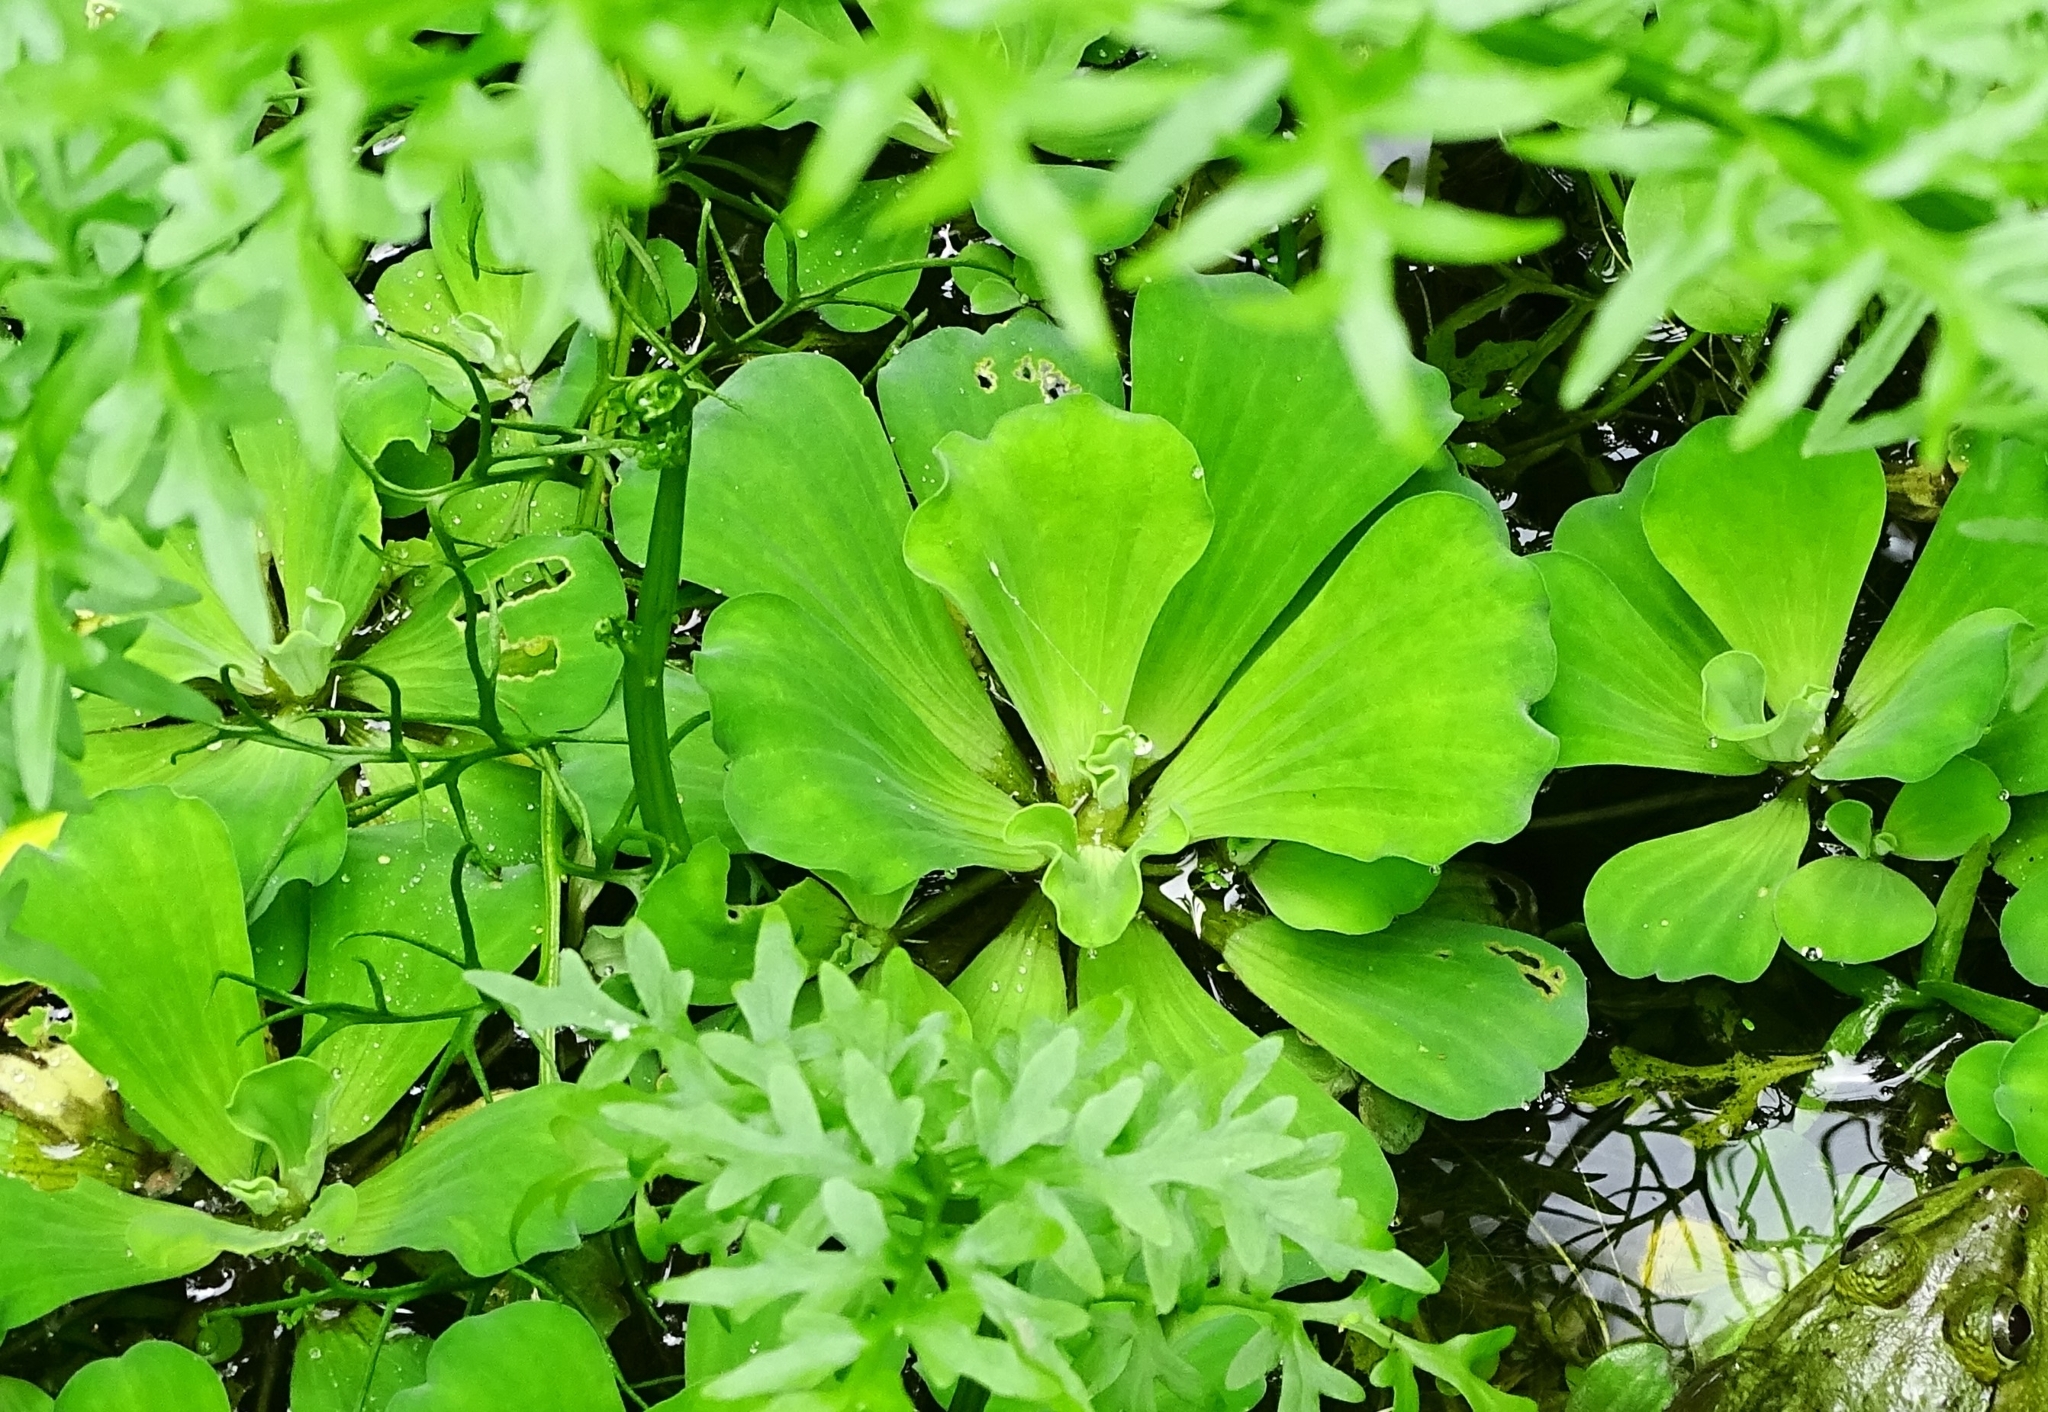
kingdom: Plantae
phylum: Tracheophyta
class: Liliopsida
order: Alismatales
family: Araceae
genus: Pistia
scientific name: Pistia stratiotes
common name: Water lettuce
